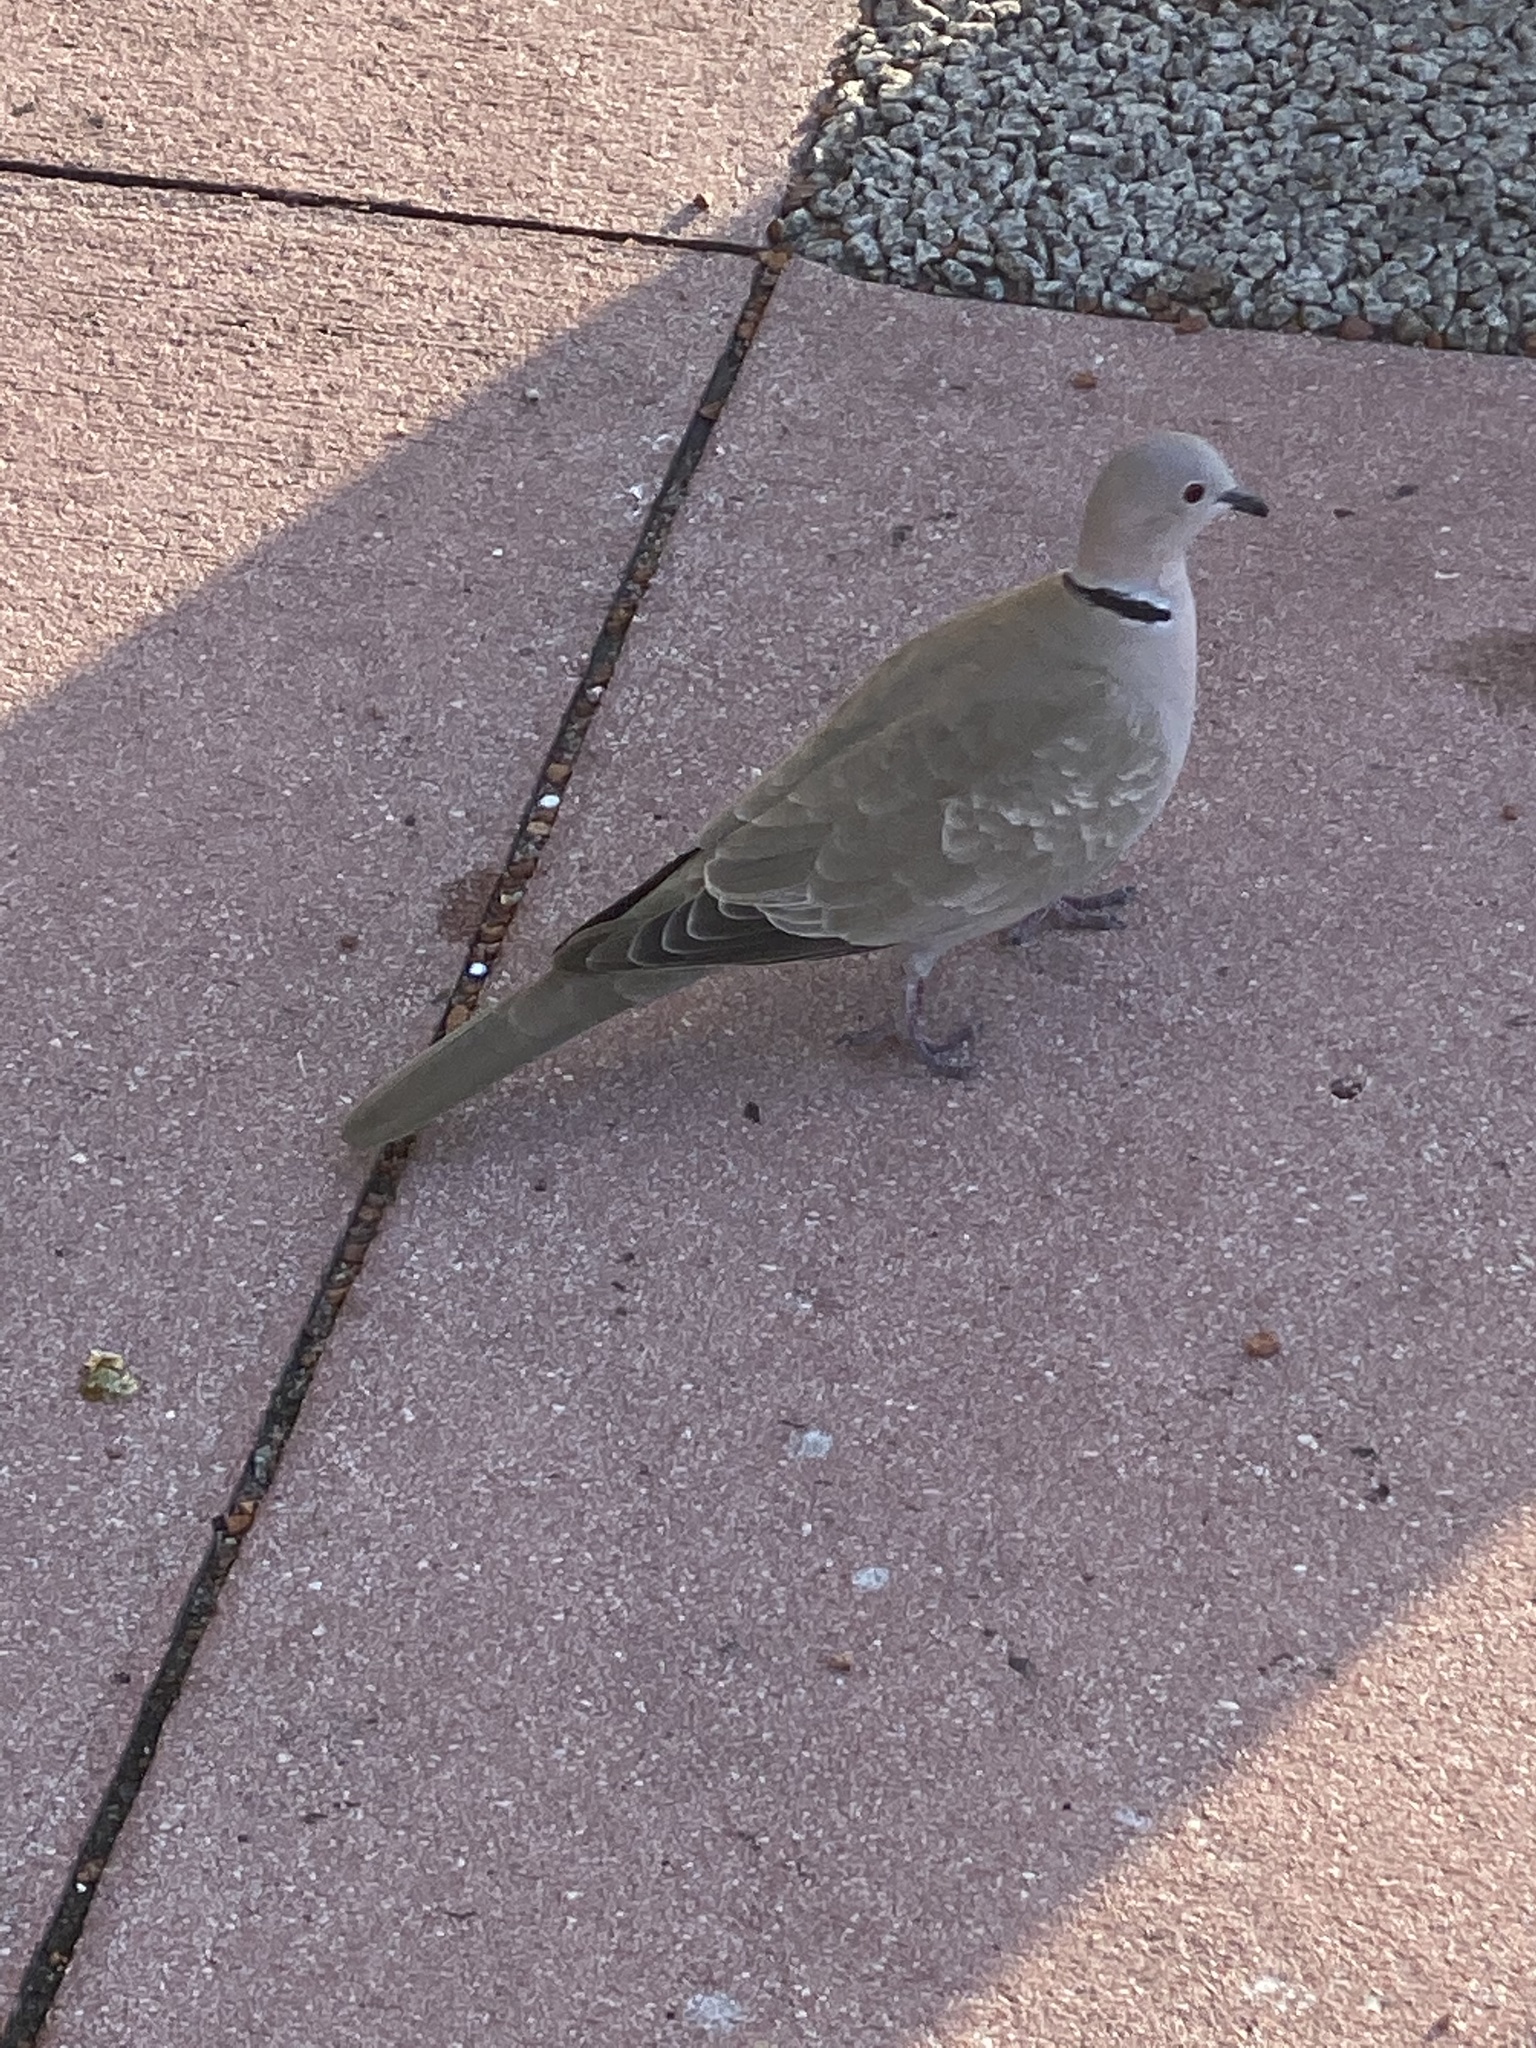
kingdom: Animalia
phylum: Chordata
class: Aves
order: Columbiformes
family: Columbidae
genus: Streptopelia
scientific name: Streptopelia decaocto
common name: Eurasian collared dove
